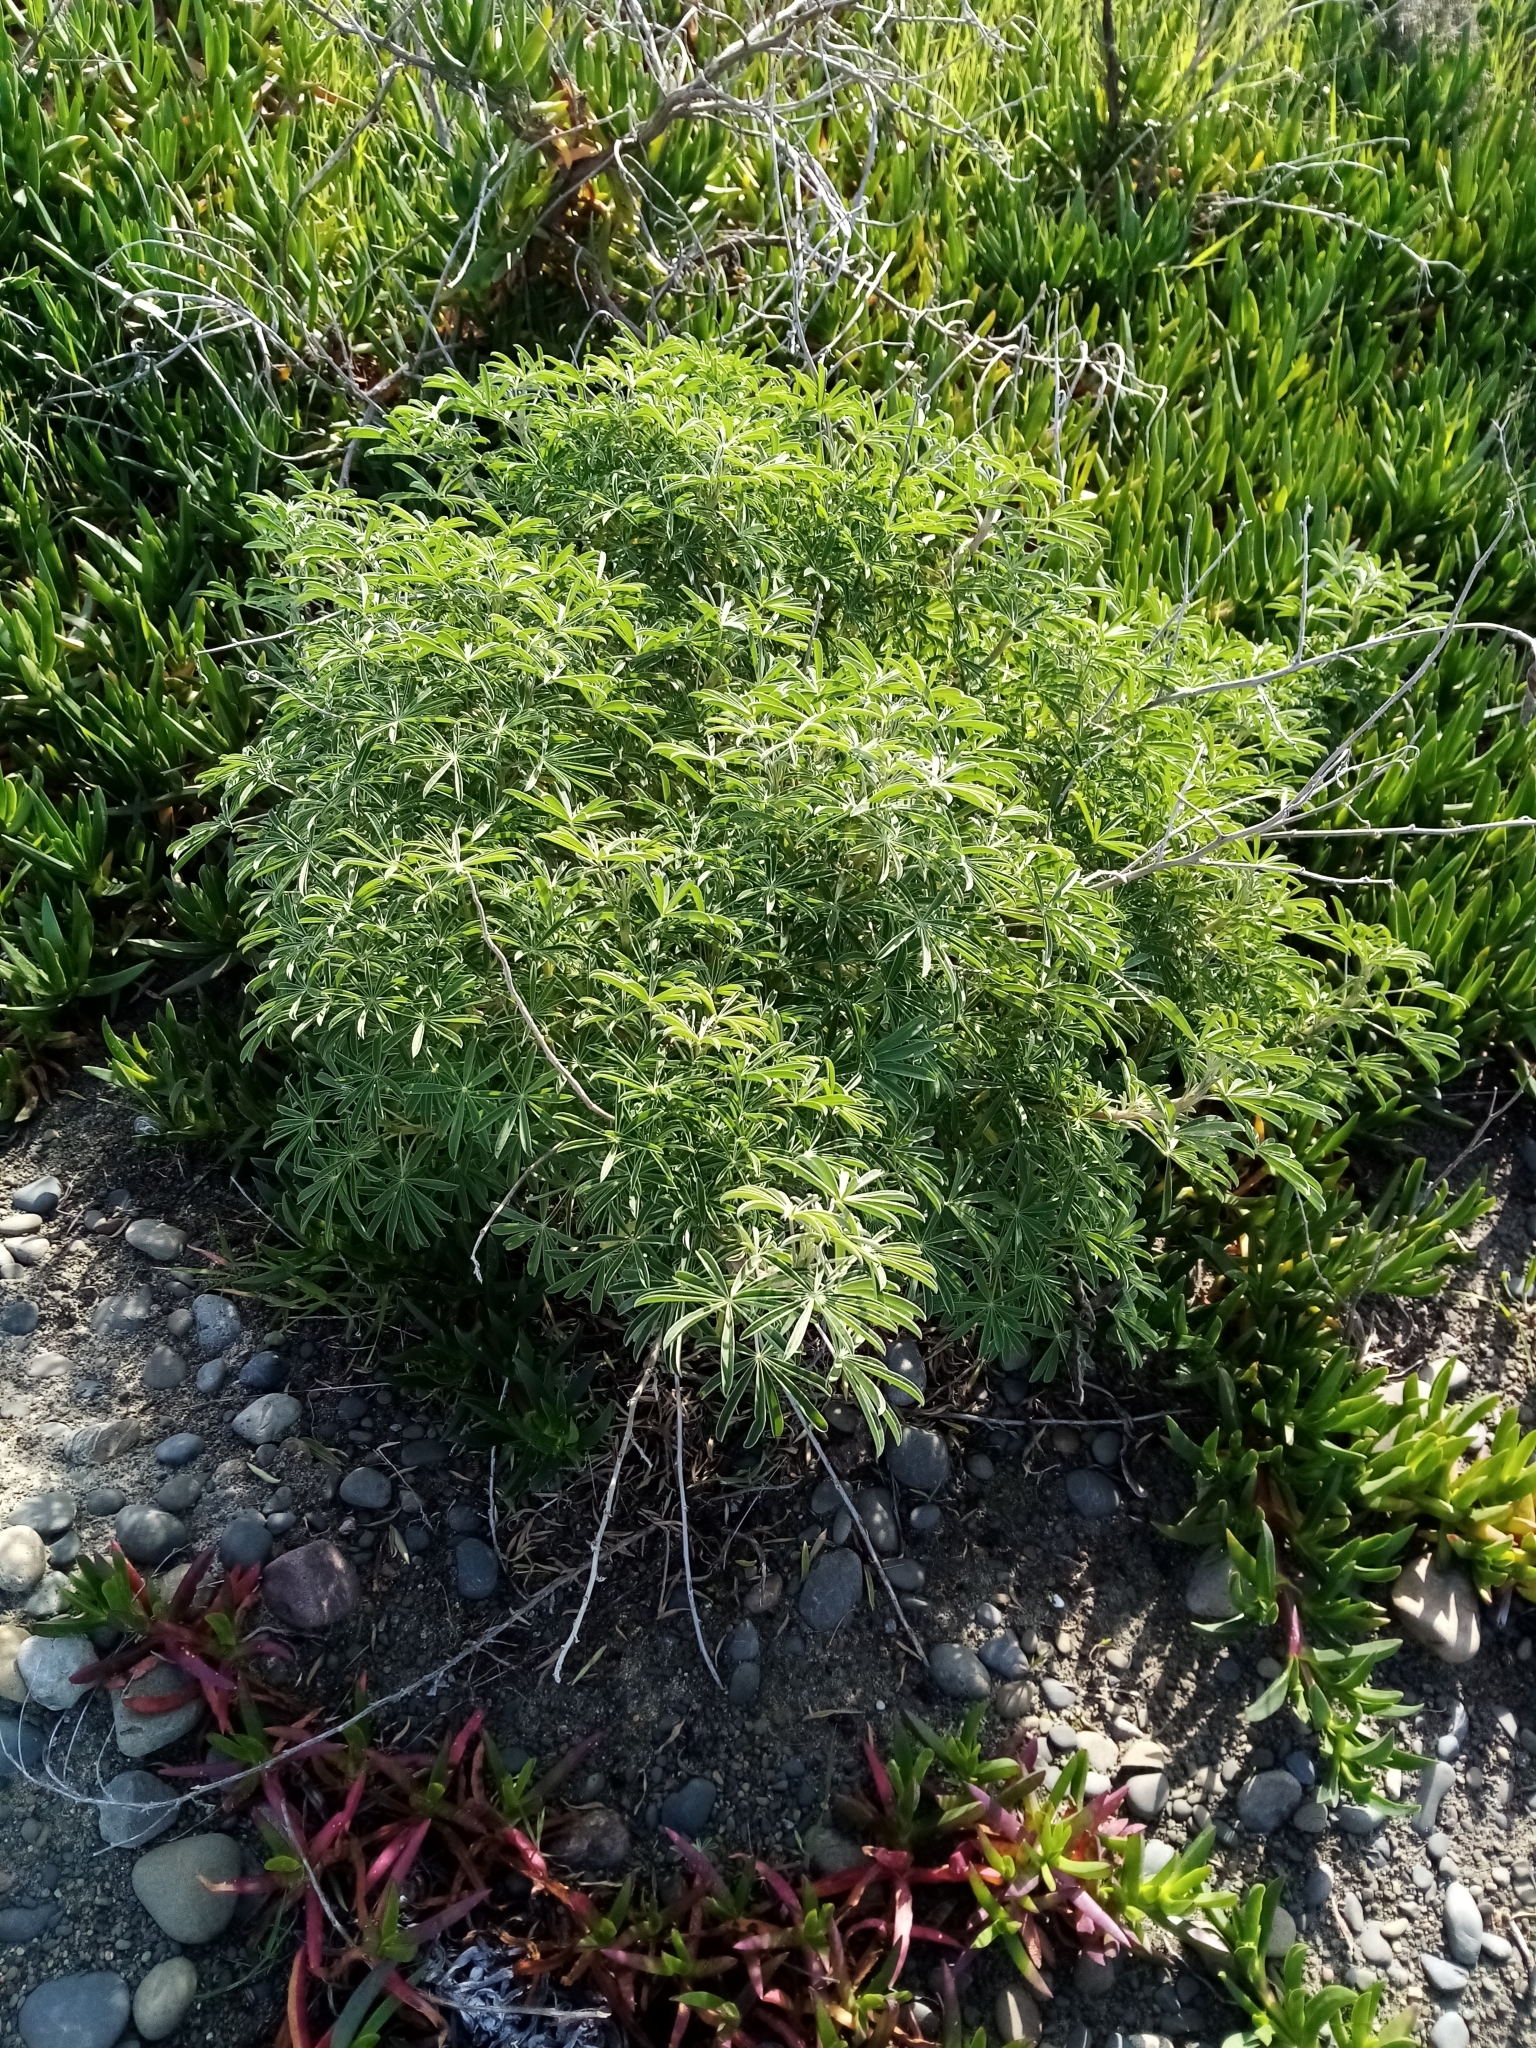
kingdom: Plantae
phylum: Tracheophyta
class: Magnoliopsida
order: Fabales
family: Fabaceae
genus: Lupinus
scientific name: Lupinus arboreus
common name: Yellow bush lupine
